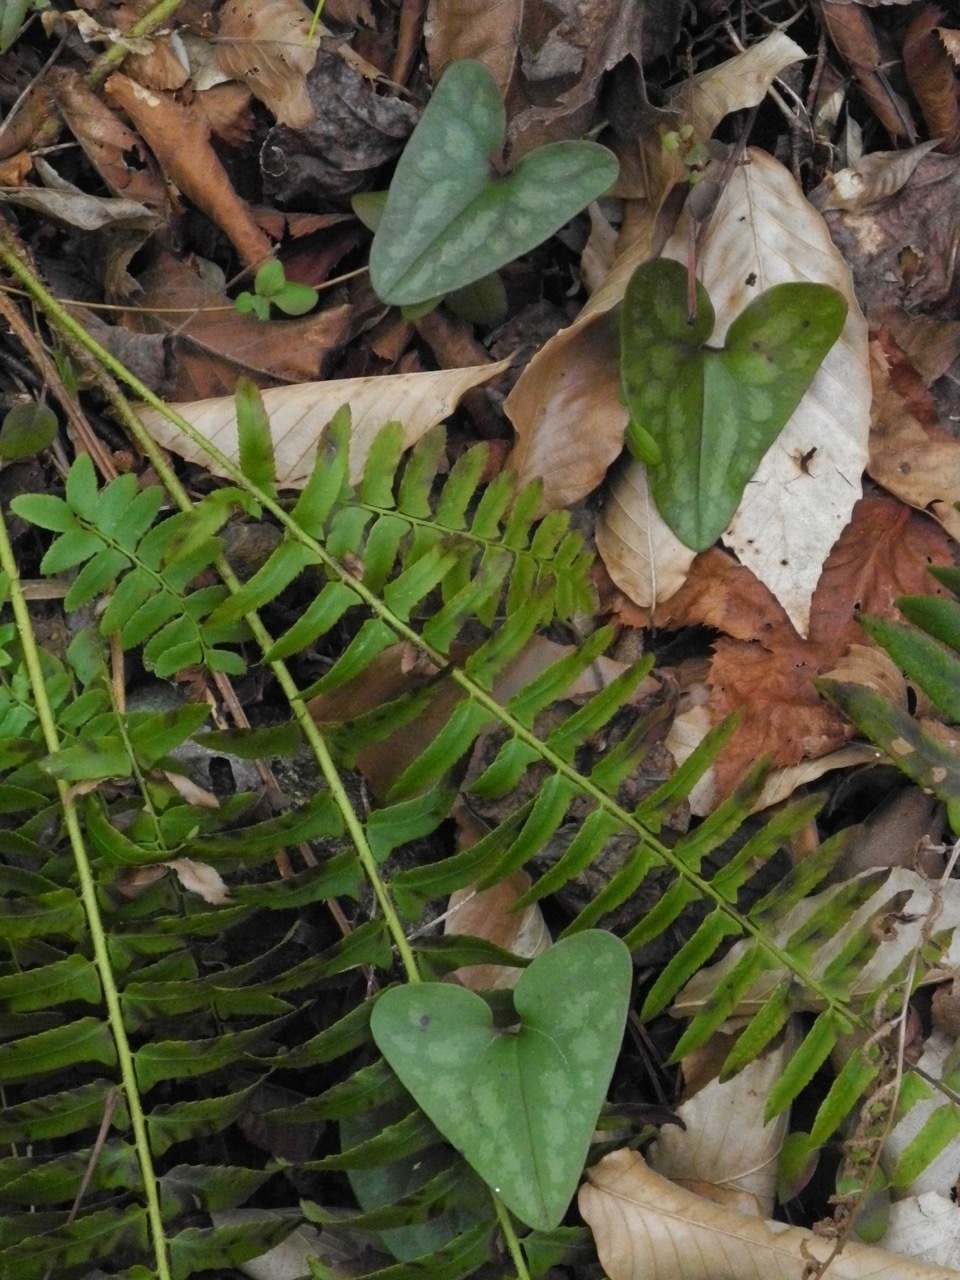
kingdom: Plantae
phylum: Tracheophyta
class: Polypodiopsida
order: Polypodiales
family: Dryopteridaceae
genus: Polystichum
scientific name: Polystichum acrostichoides
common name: Christmas fern
